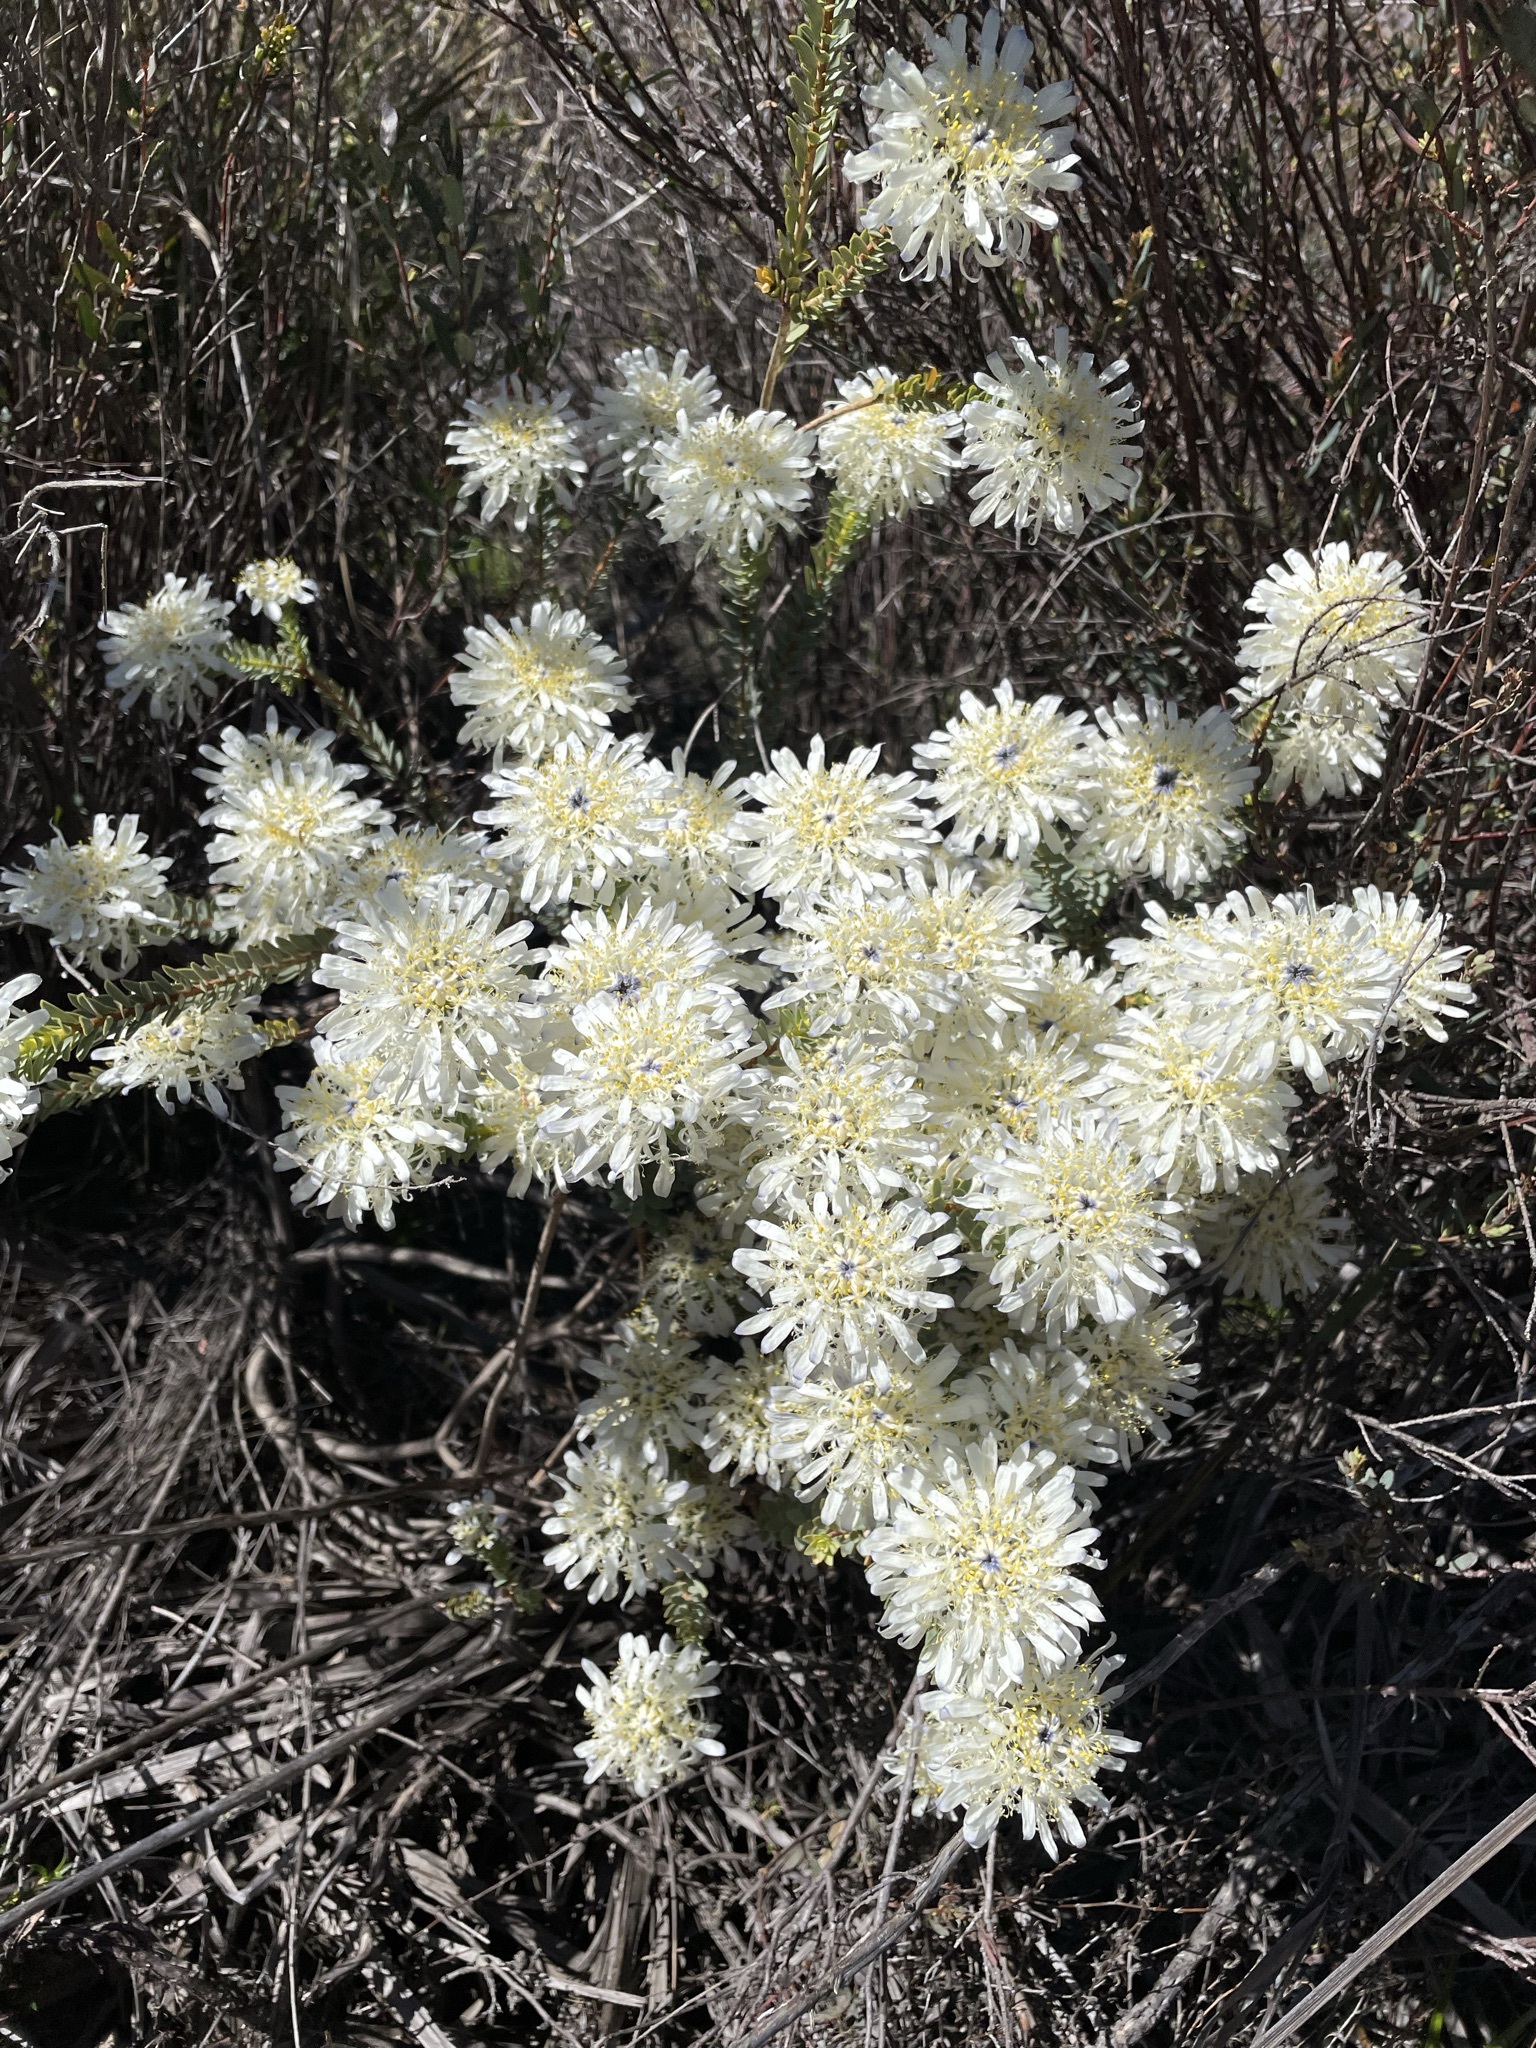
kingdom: Plantae
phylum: Tracheophyta
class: Magnoliopsida
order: Malvales
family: Thymelaeaceae
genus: Lachnaea
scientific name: Lachnaea filamentosa
